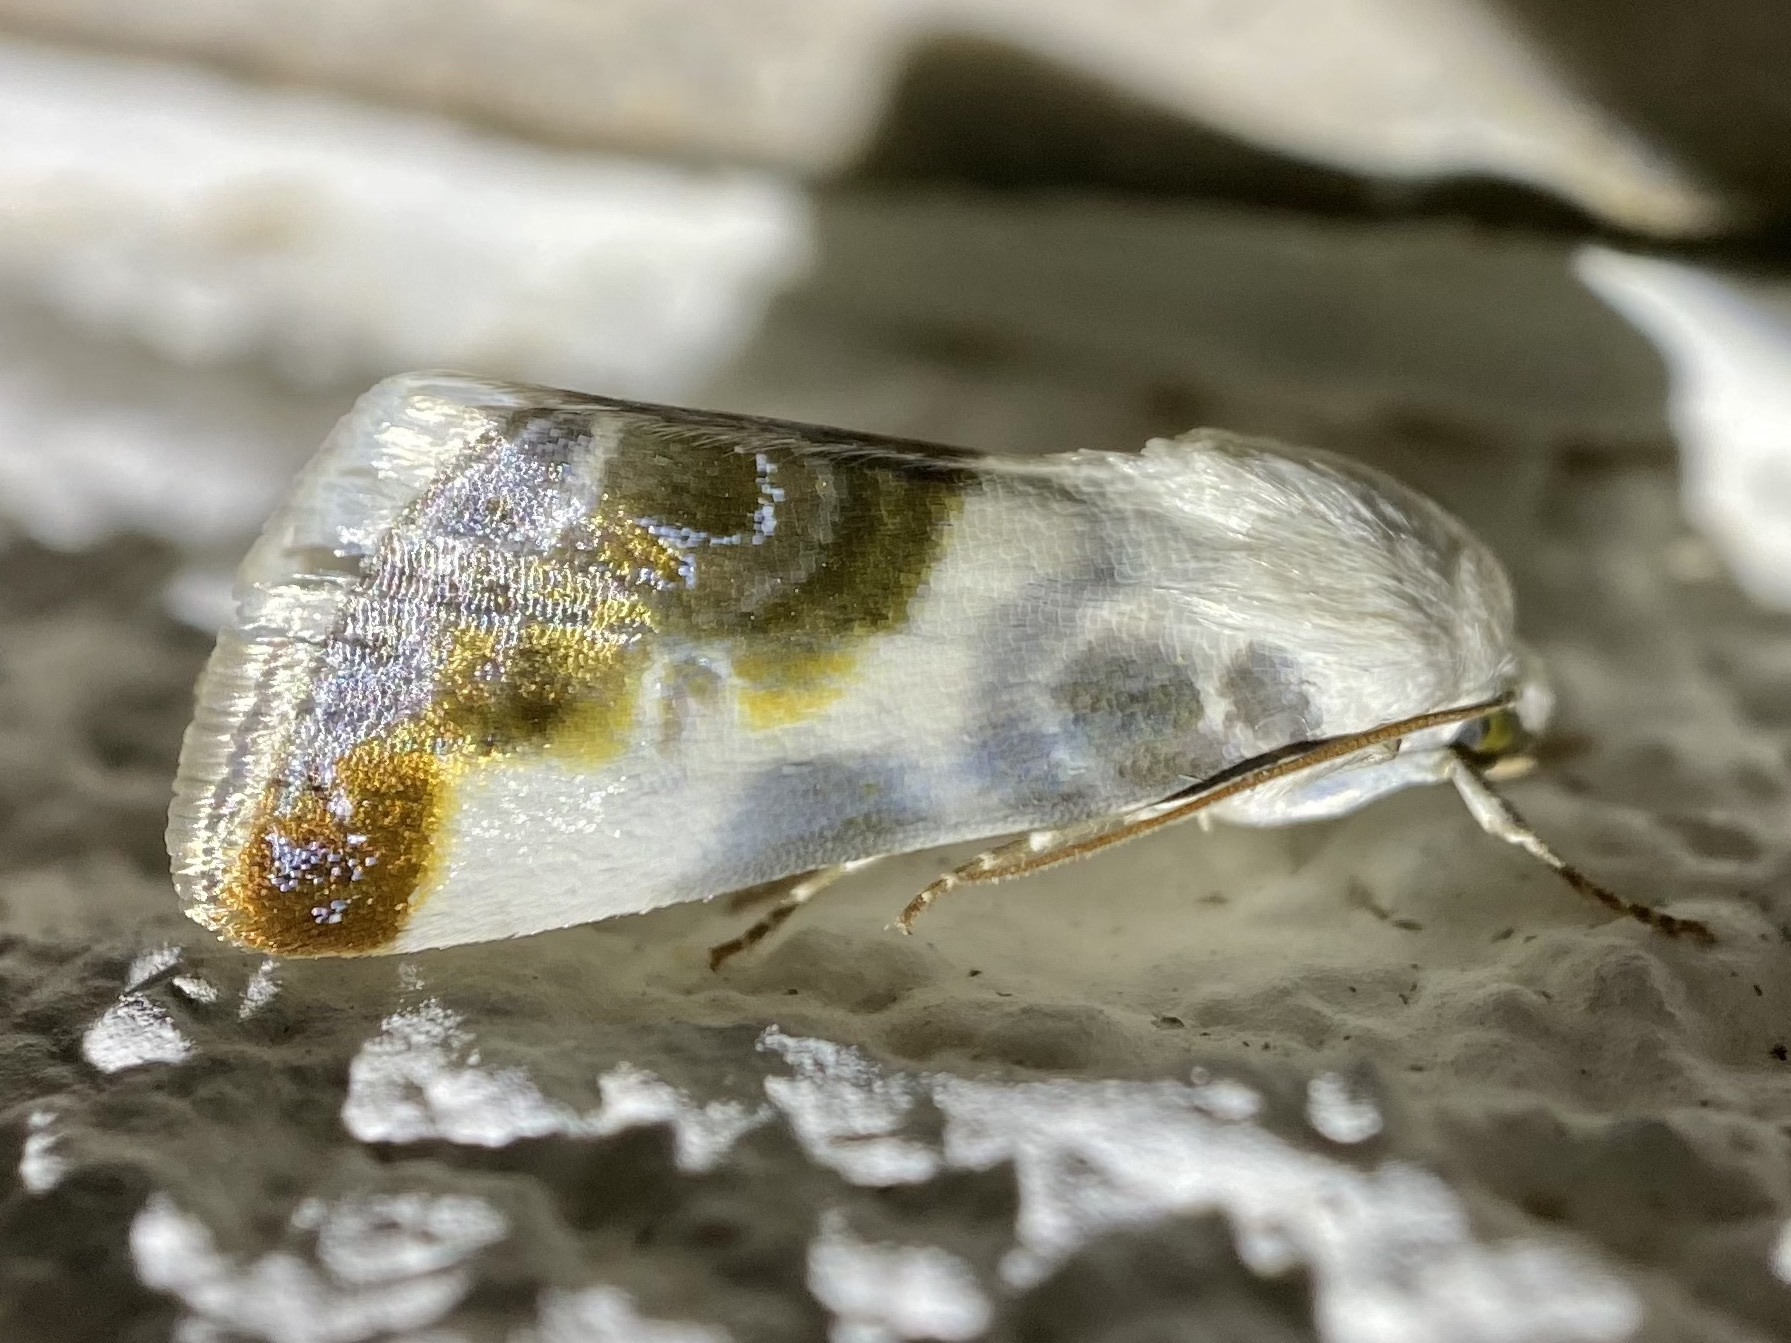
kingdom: Animalia
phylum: Arthropoda
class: Insecta
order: Lepidoptera
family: Noctuidae
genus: Acontia
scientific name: Acontia cretata
